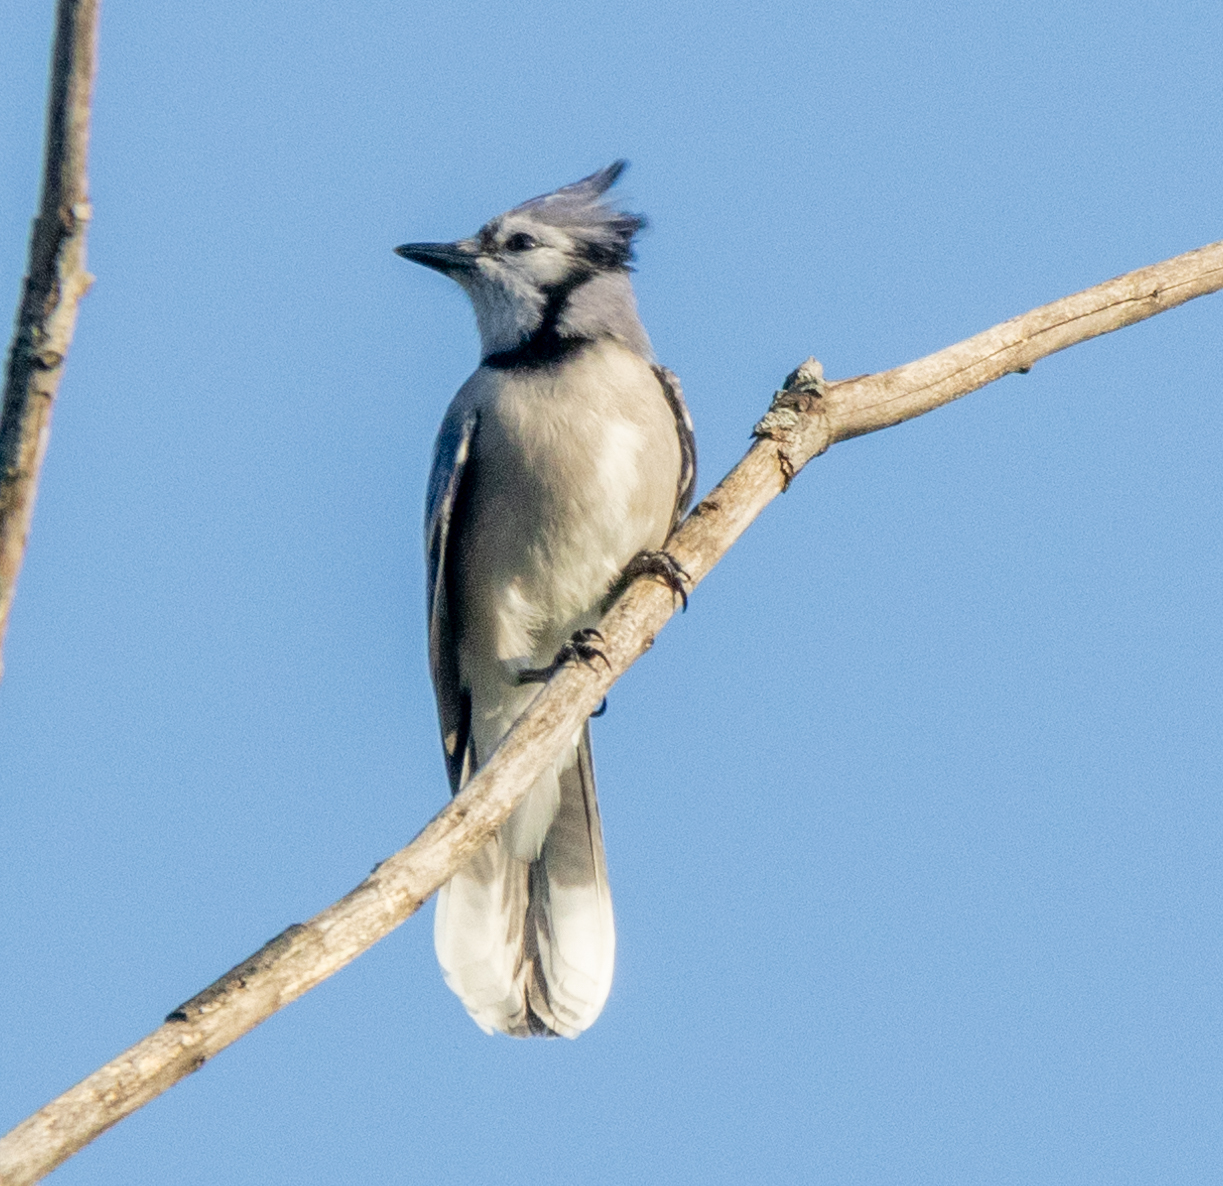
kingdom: Animalia
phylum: Chordata
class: Aves
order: Passeriformes
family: Corvidae
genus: Cyanocitta
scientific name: Cyanocitta cristata
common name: Blue jay
